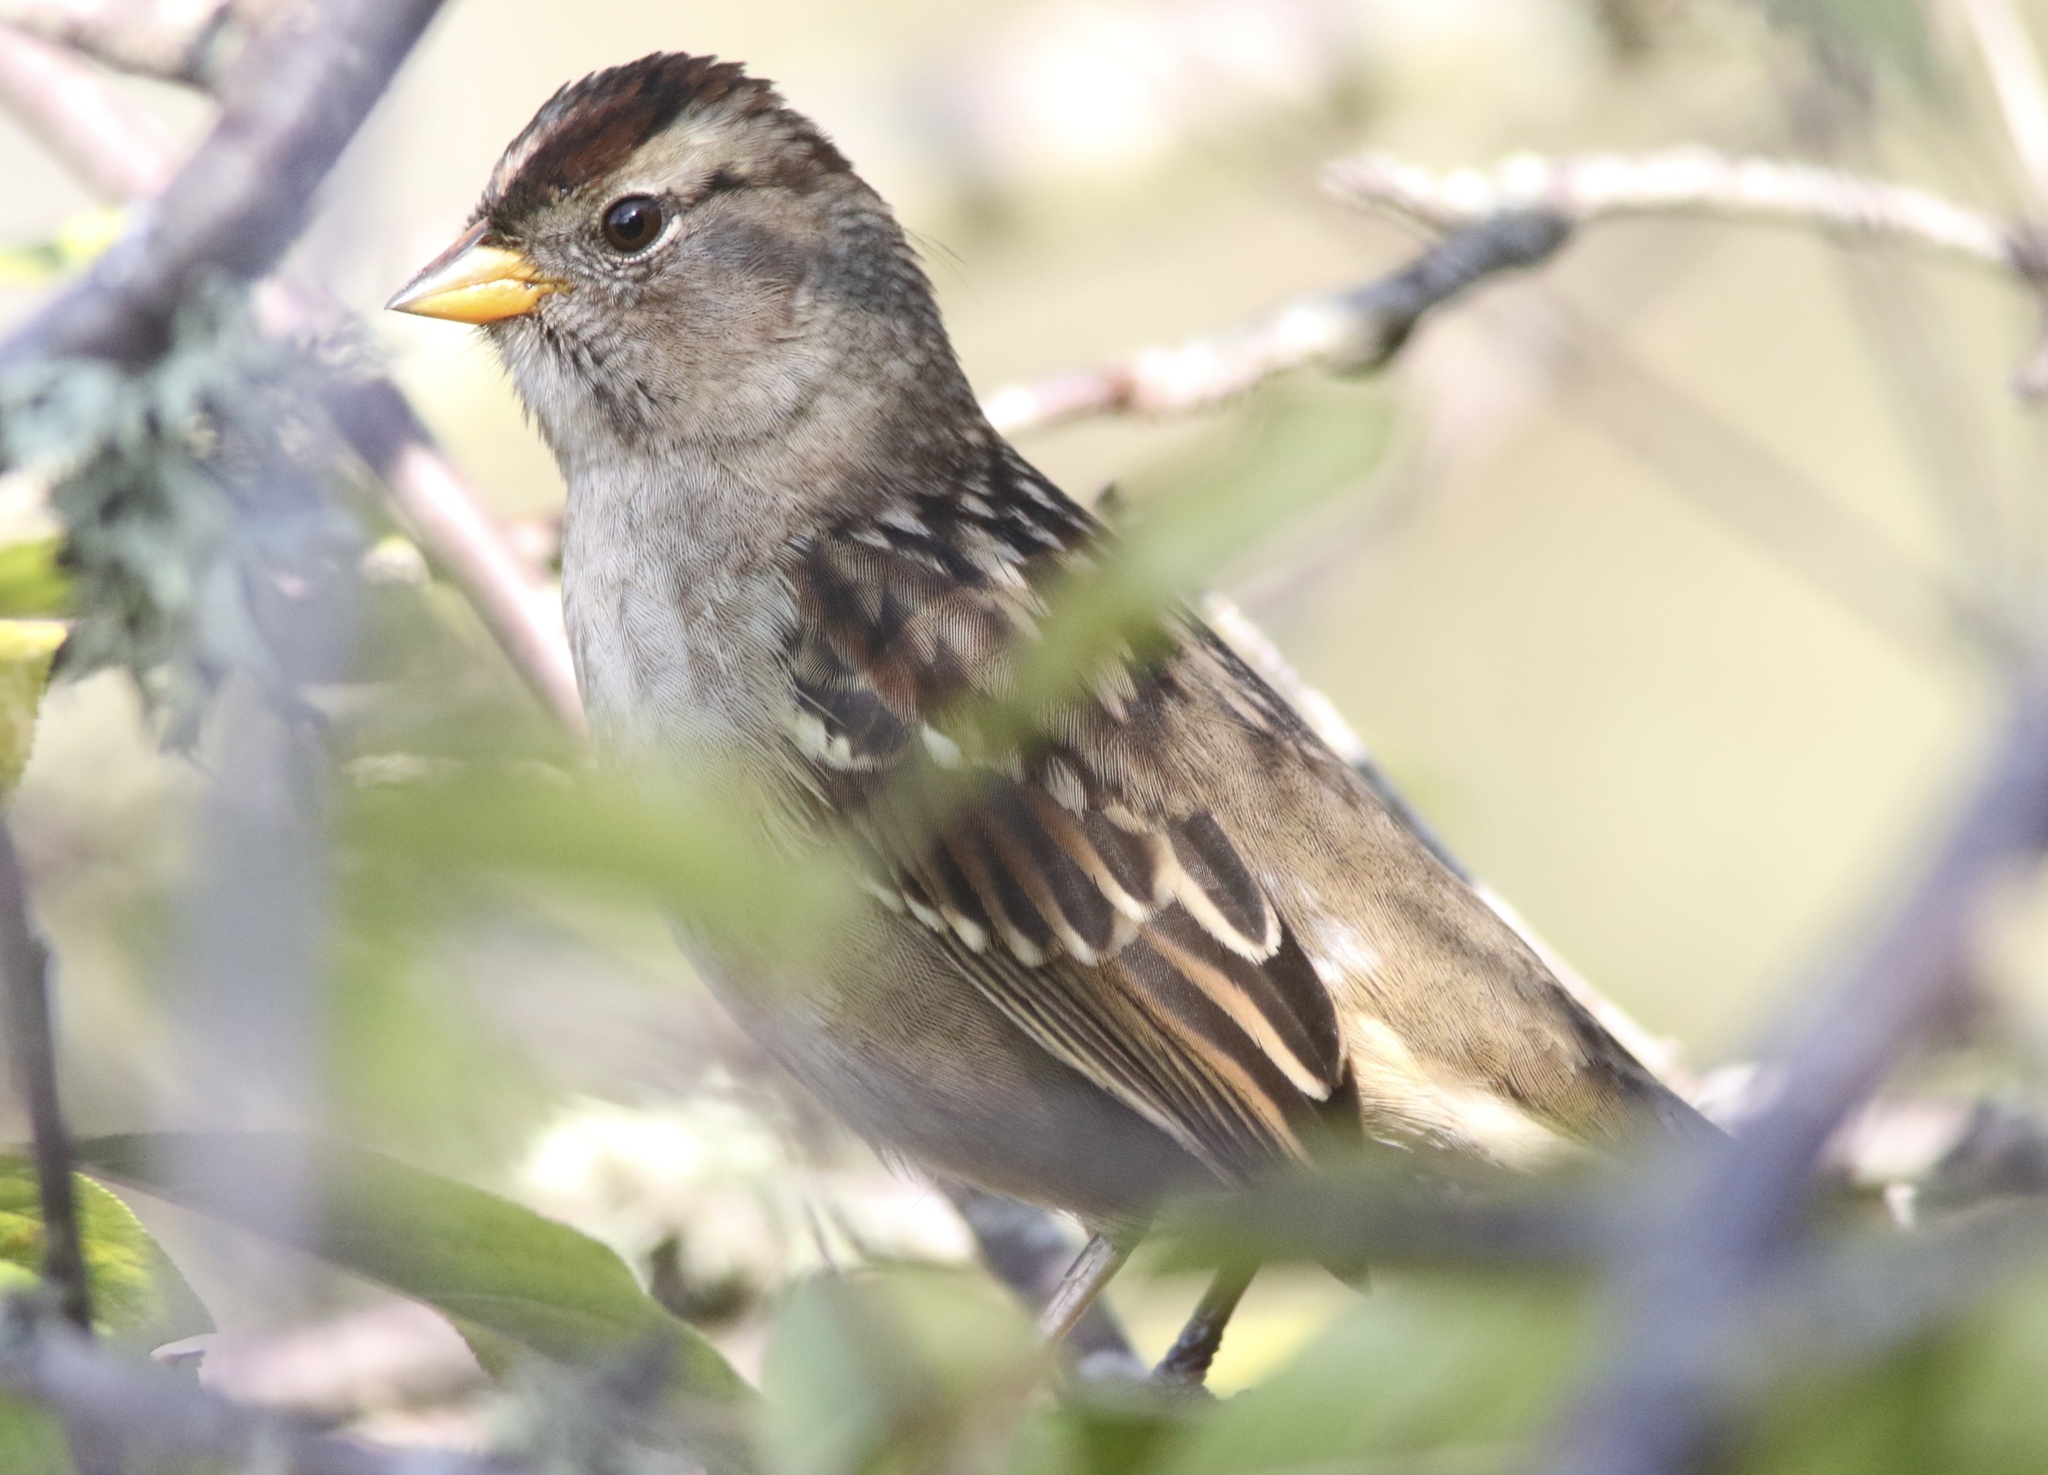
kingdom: Animalia
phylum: Chordata
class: Aves
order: Passeriformes
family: Passerellidae
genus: Zonotrichia
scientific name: Zonotrichia leucophrys
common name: White-crowned sparrow
